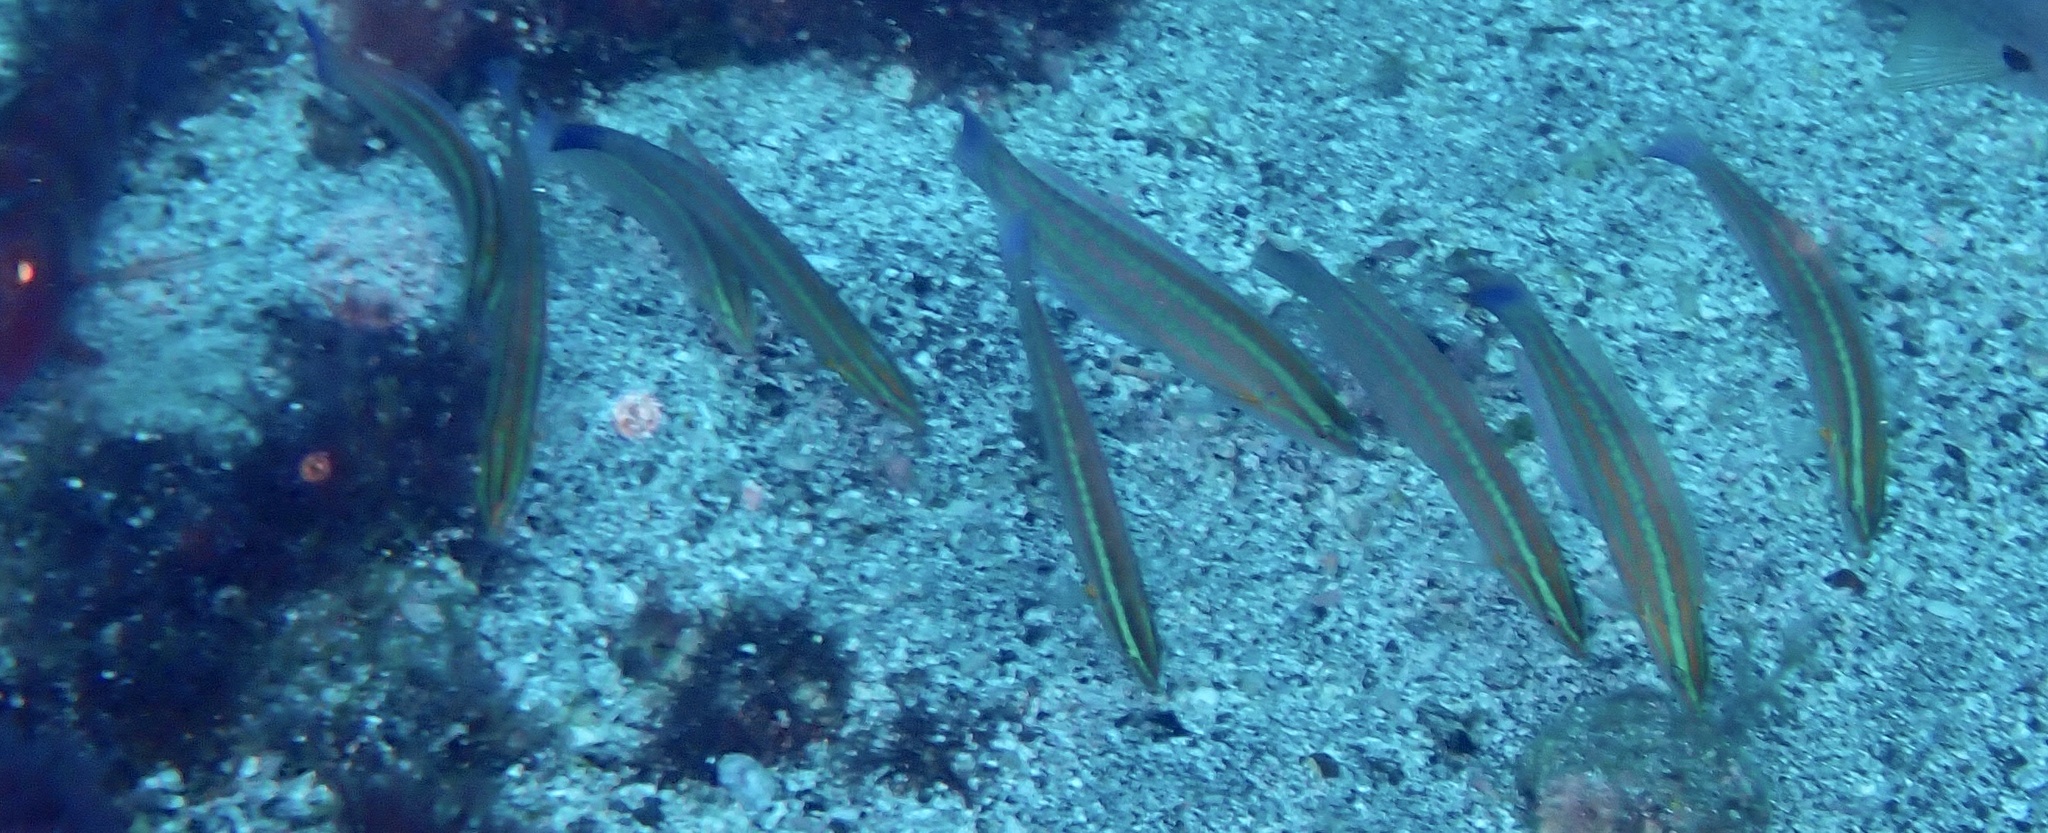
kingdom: Animalia
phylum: Chordata
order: Perciformes
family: Labridae
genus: Coris
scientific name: Coris atlantica
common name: Rainbow wrasse
